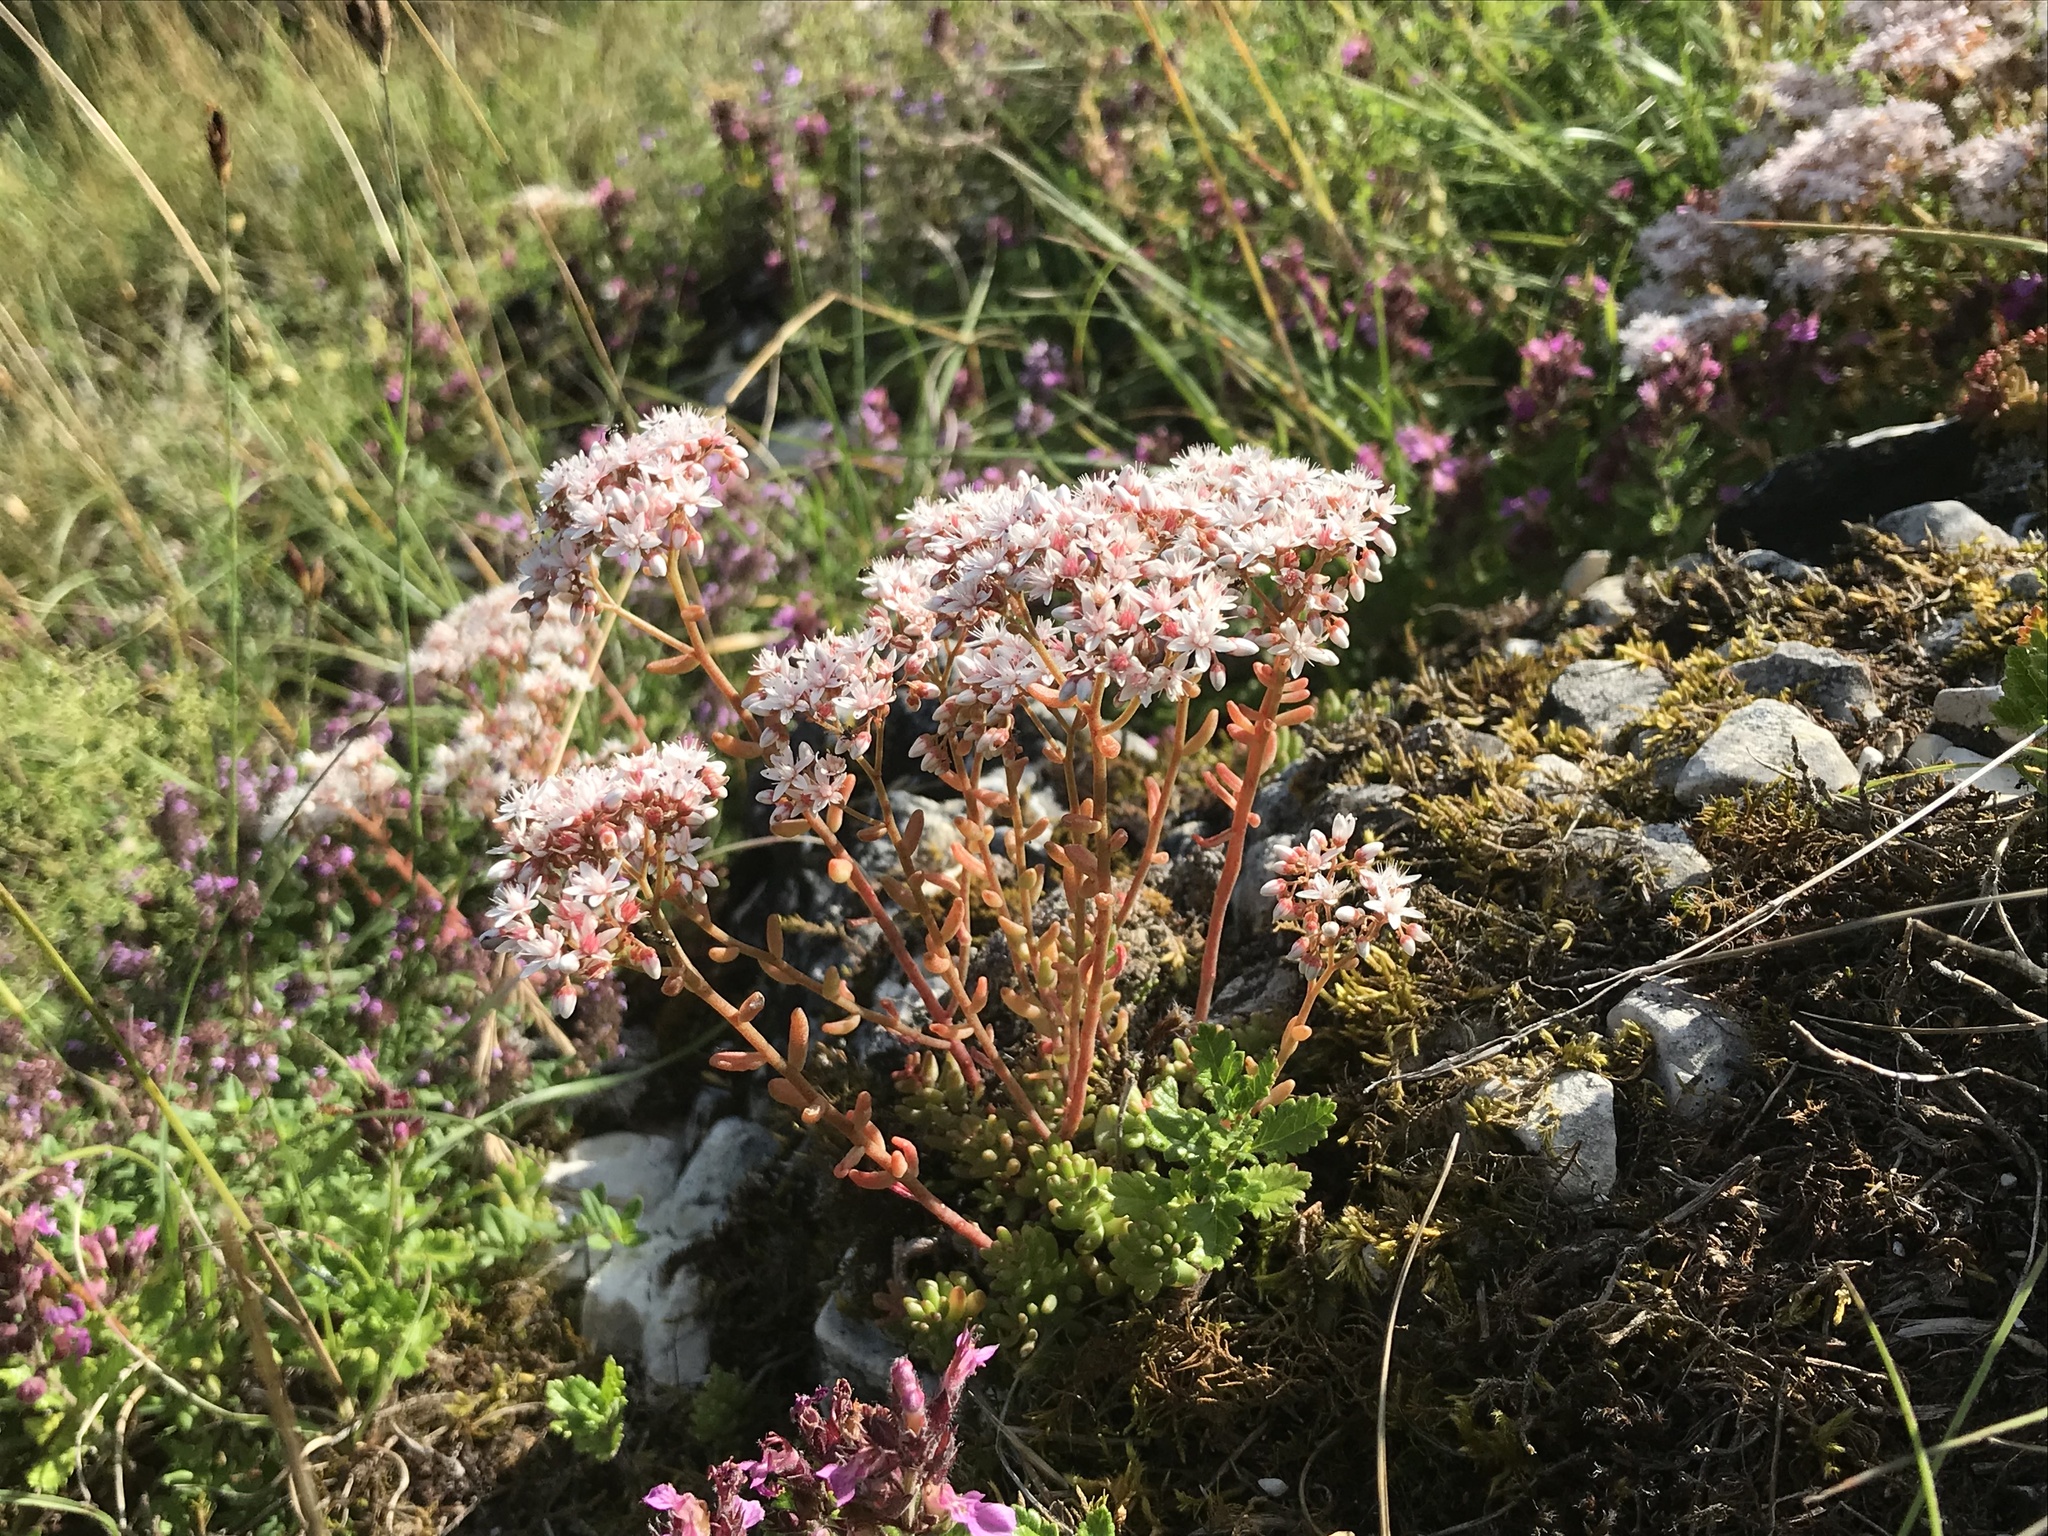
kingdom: Plantae
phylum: Tracheophyta
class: Magnoliopsida
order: Saxifragales
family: Crassulaceae
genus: Sedum
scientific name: Sedum album
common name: White stonecrop
